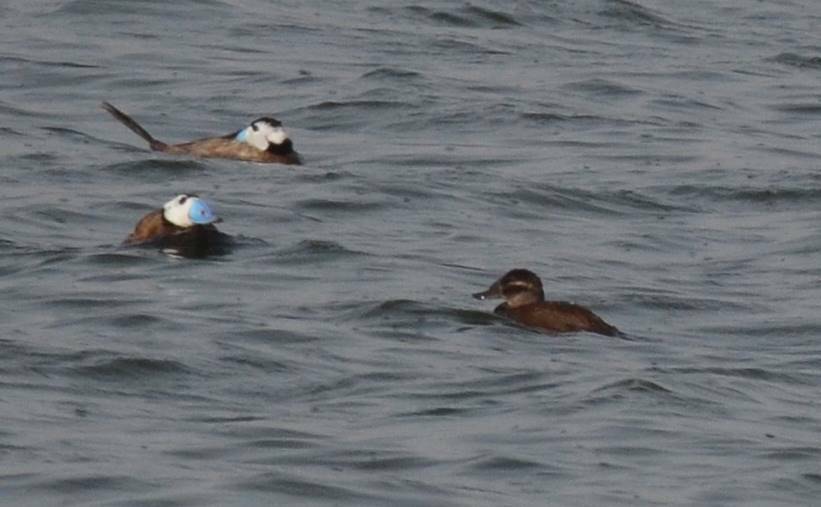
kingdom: Animalia
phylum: Chordata
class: Aves
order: Anseriformes
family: Anatidae
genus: Oxyura
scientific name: Oxyura leucocephala
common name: White-headed duck
